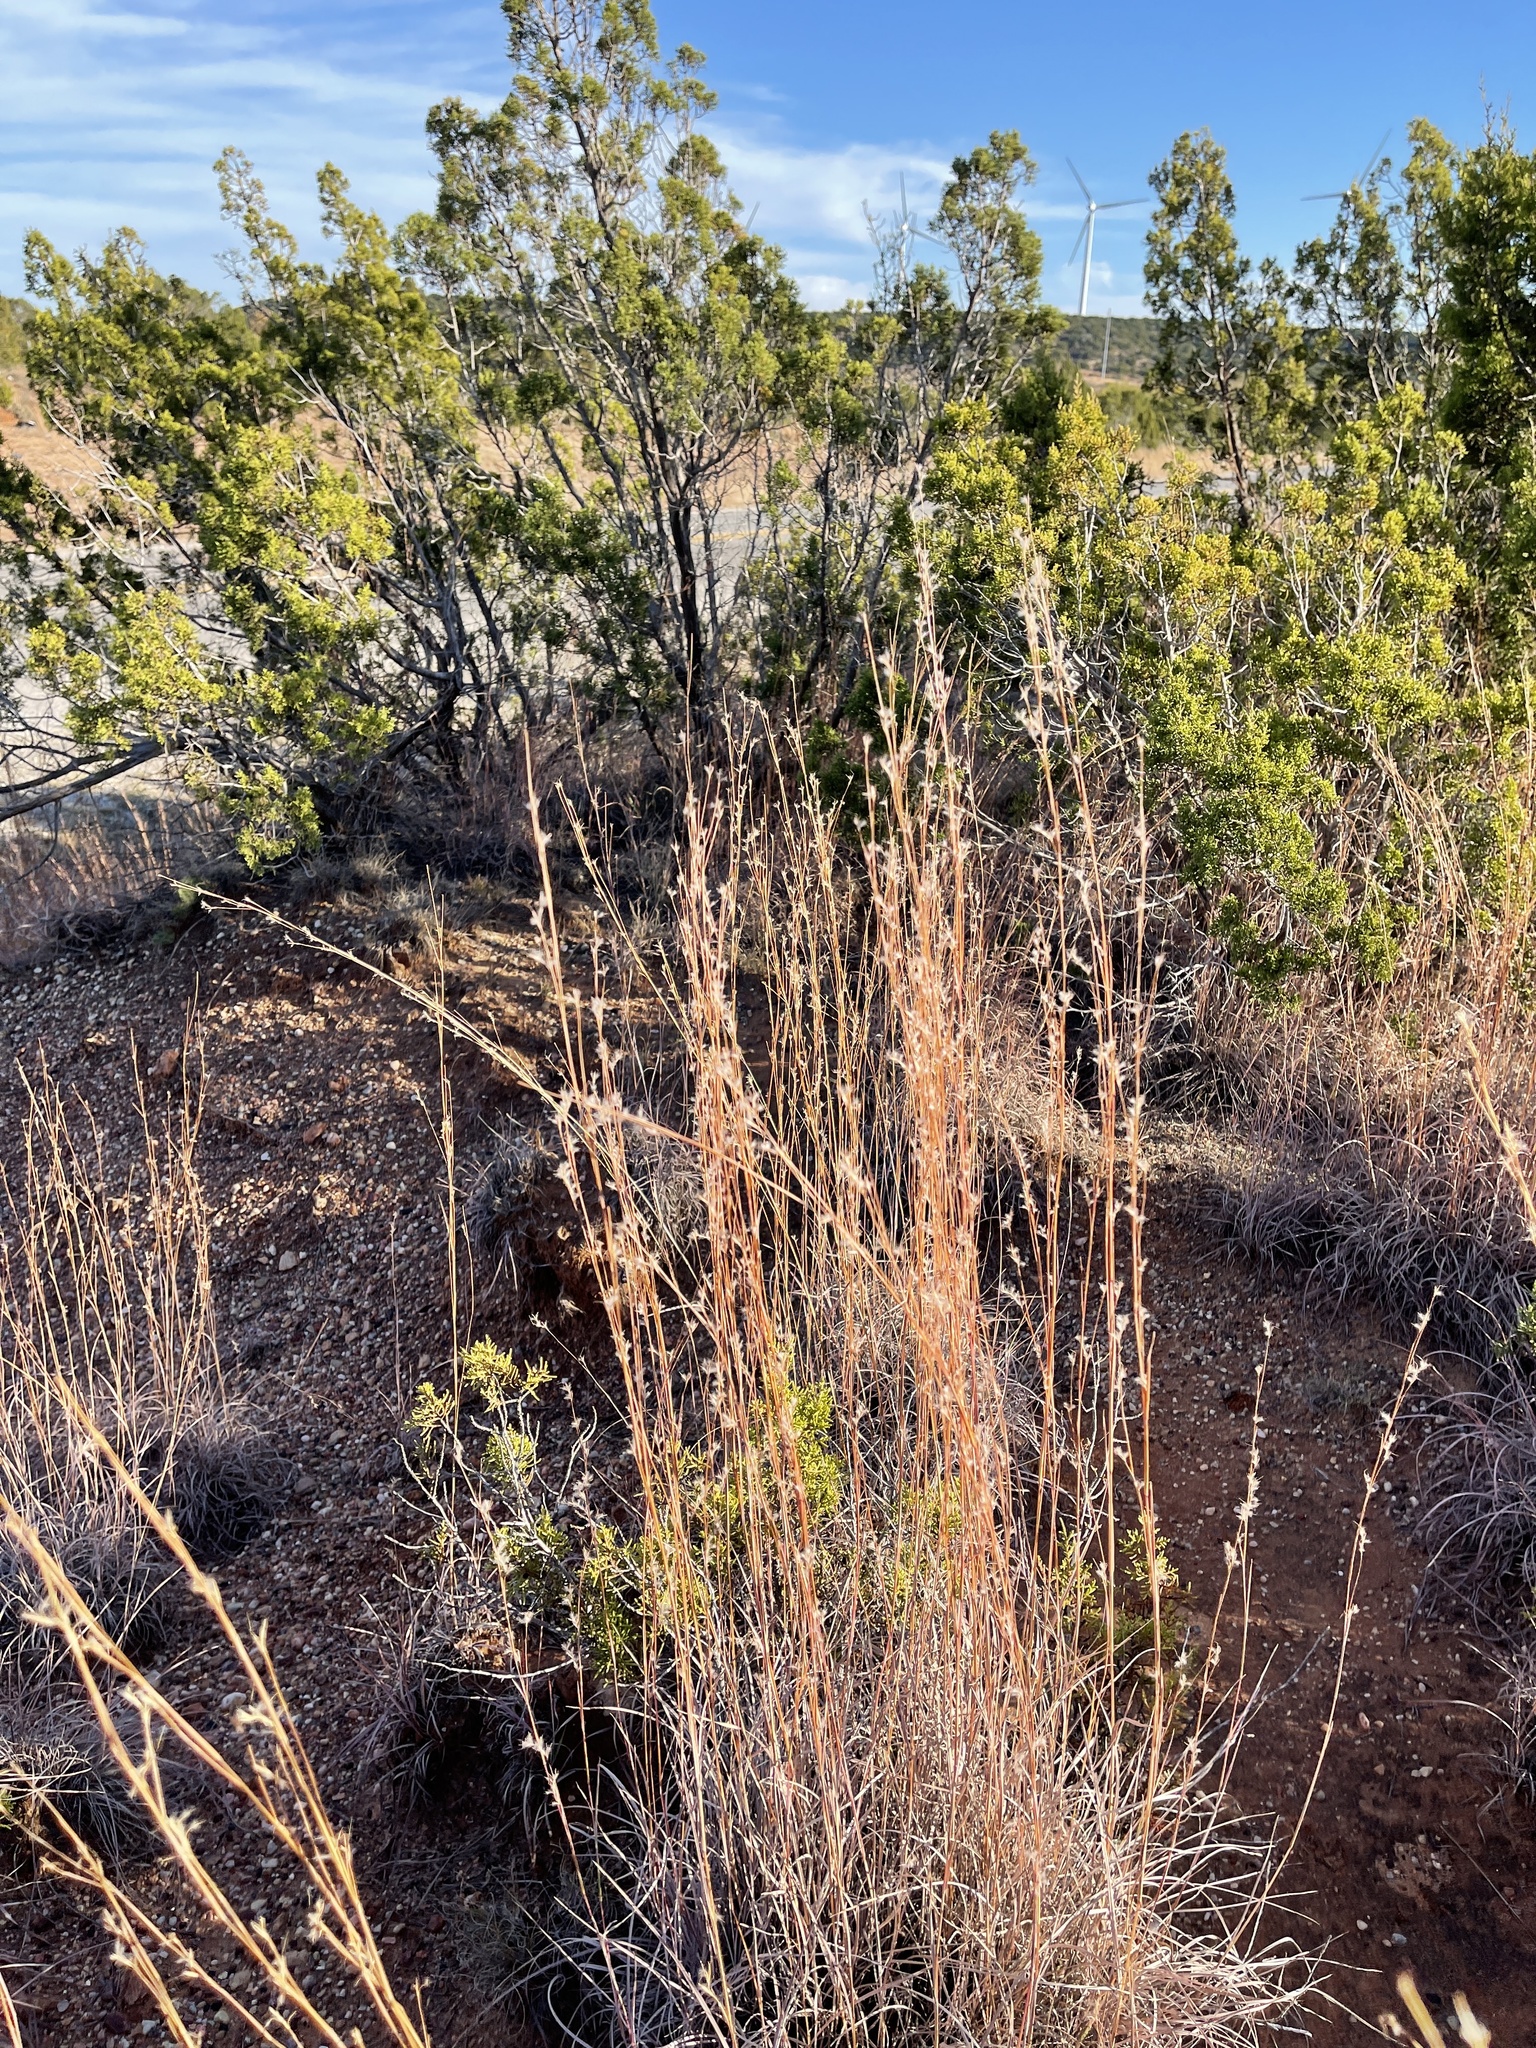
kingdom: Plantae
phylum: Tracheophyta
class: Liliopsida
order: Poales
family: Poaceae
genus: Schizachyrium
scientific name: Schizachyrium scoparium
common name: Little bluestem
